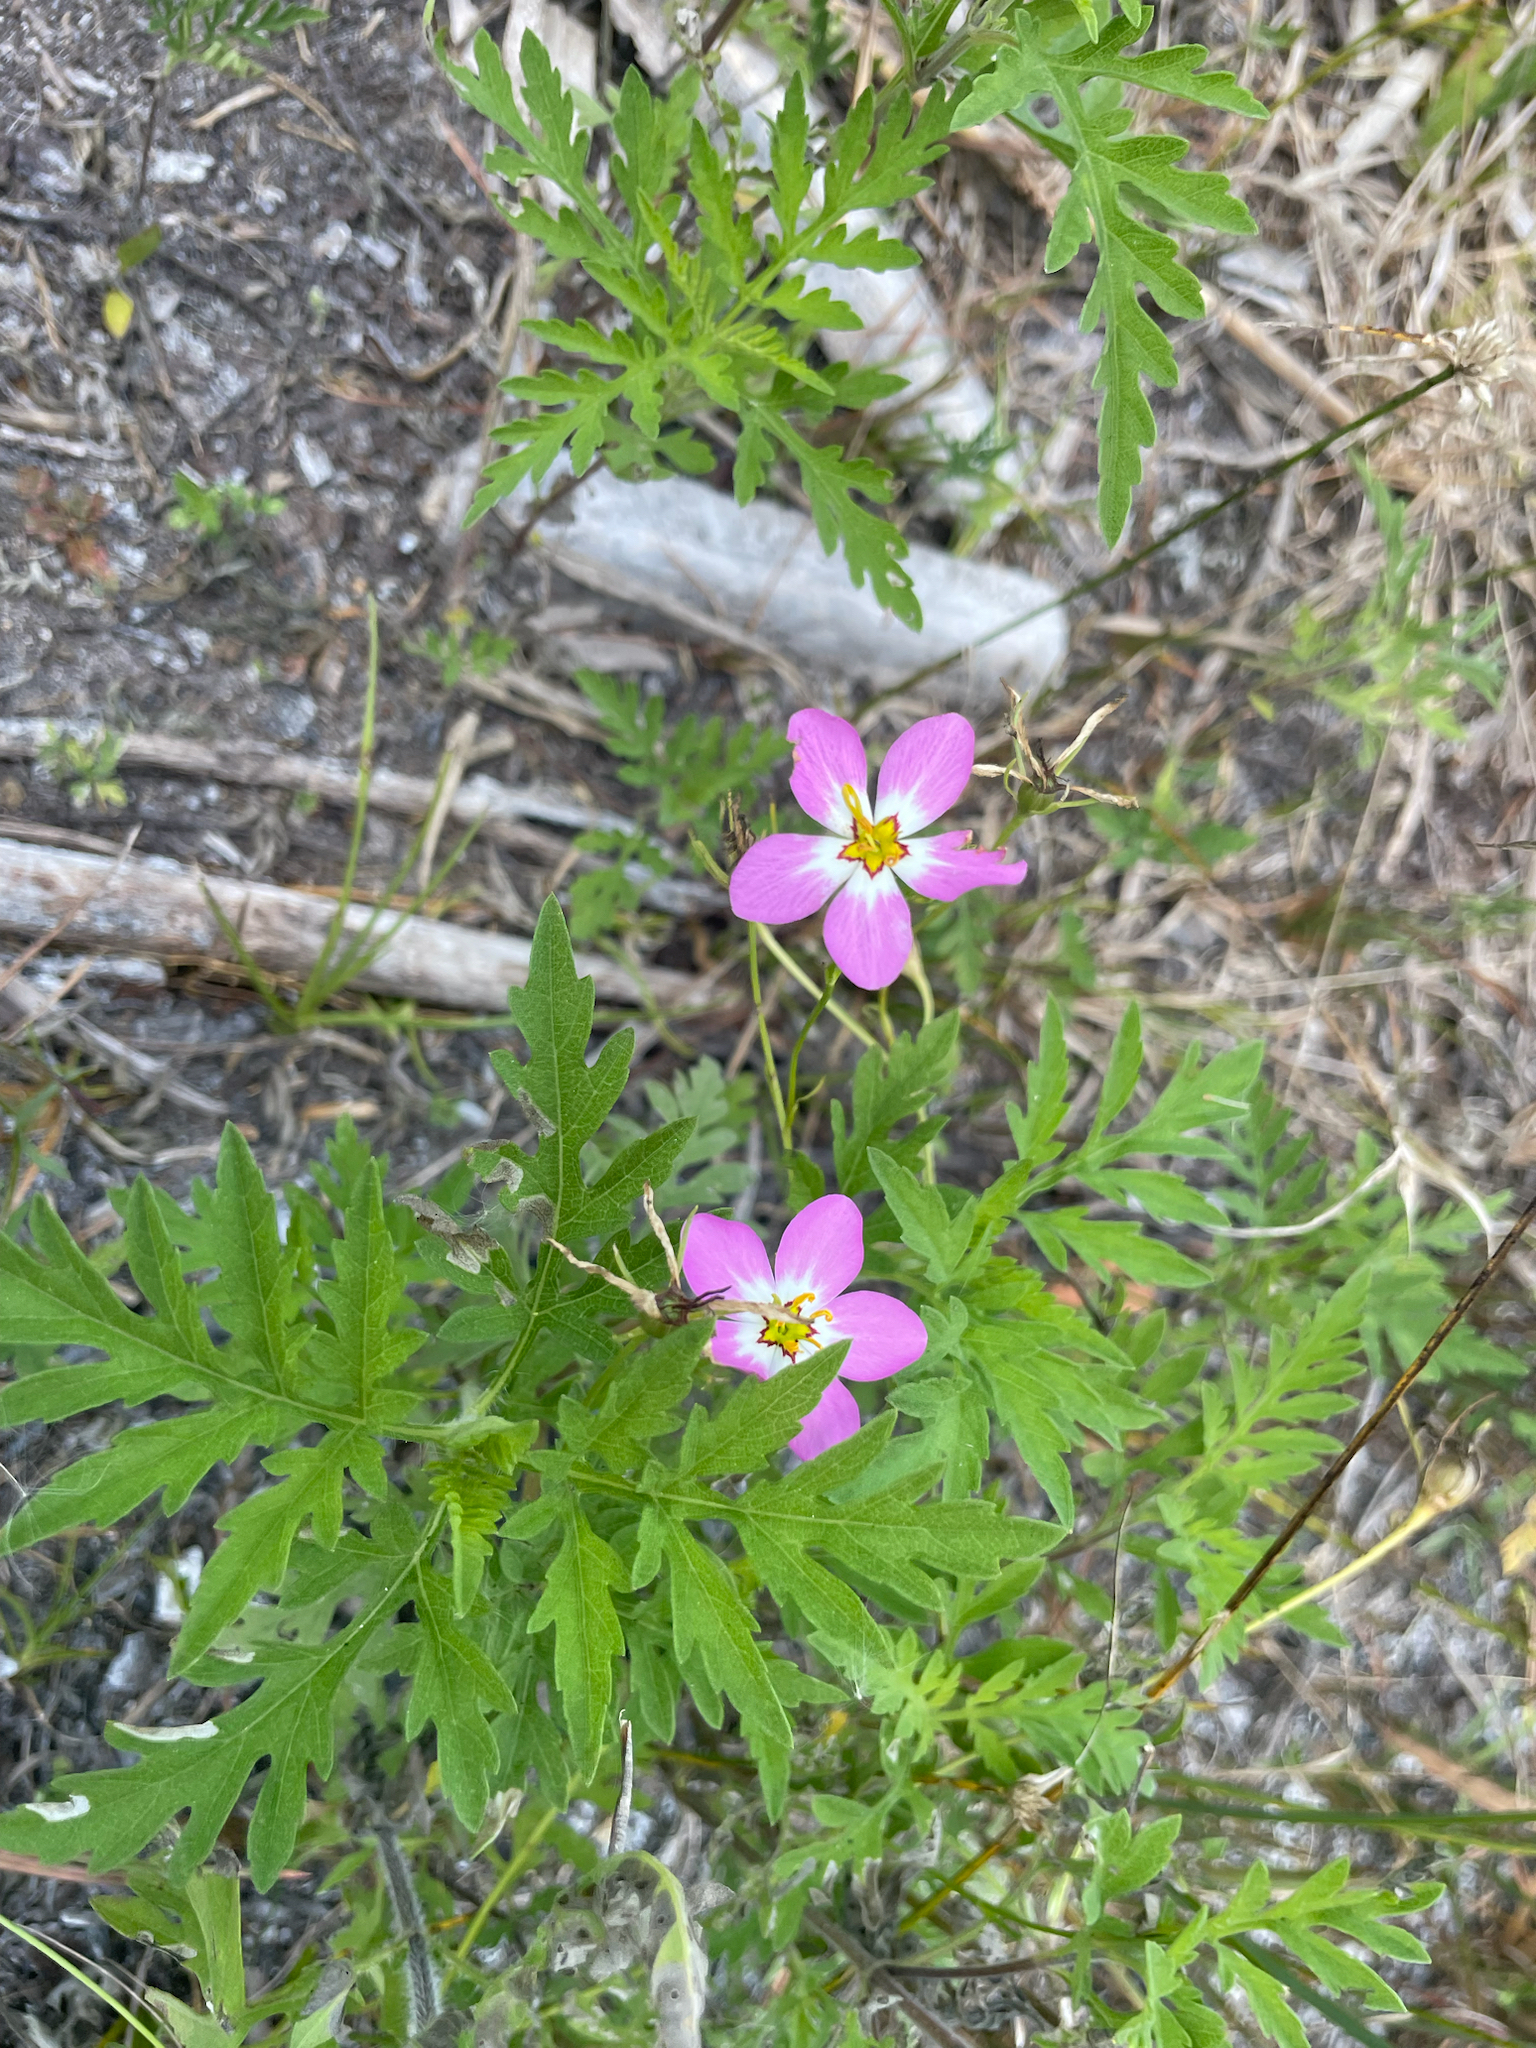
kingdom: Plantae
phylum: Tracheophyta
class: Magnoliopsida
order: Gentianales
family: Gentianaceae
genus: Sabatia
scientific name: Sabatia stellaris
